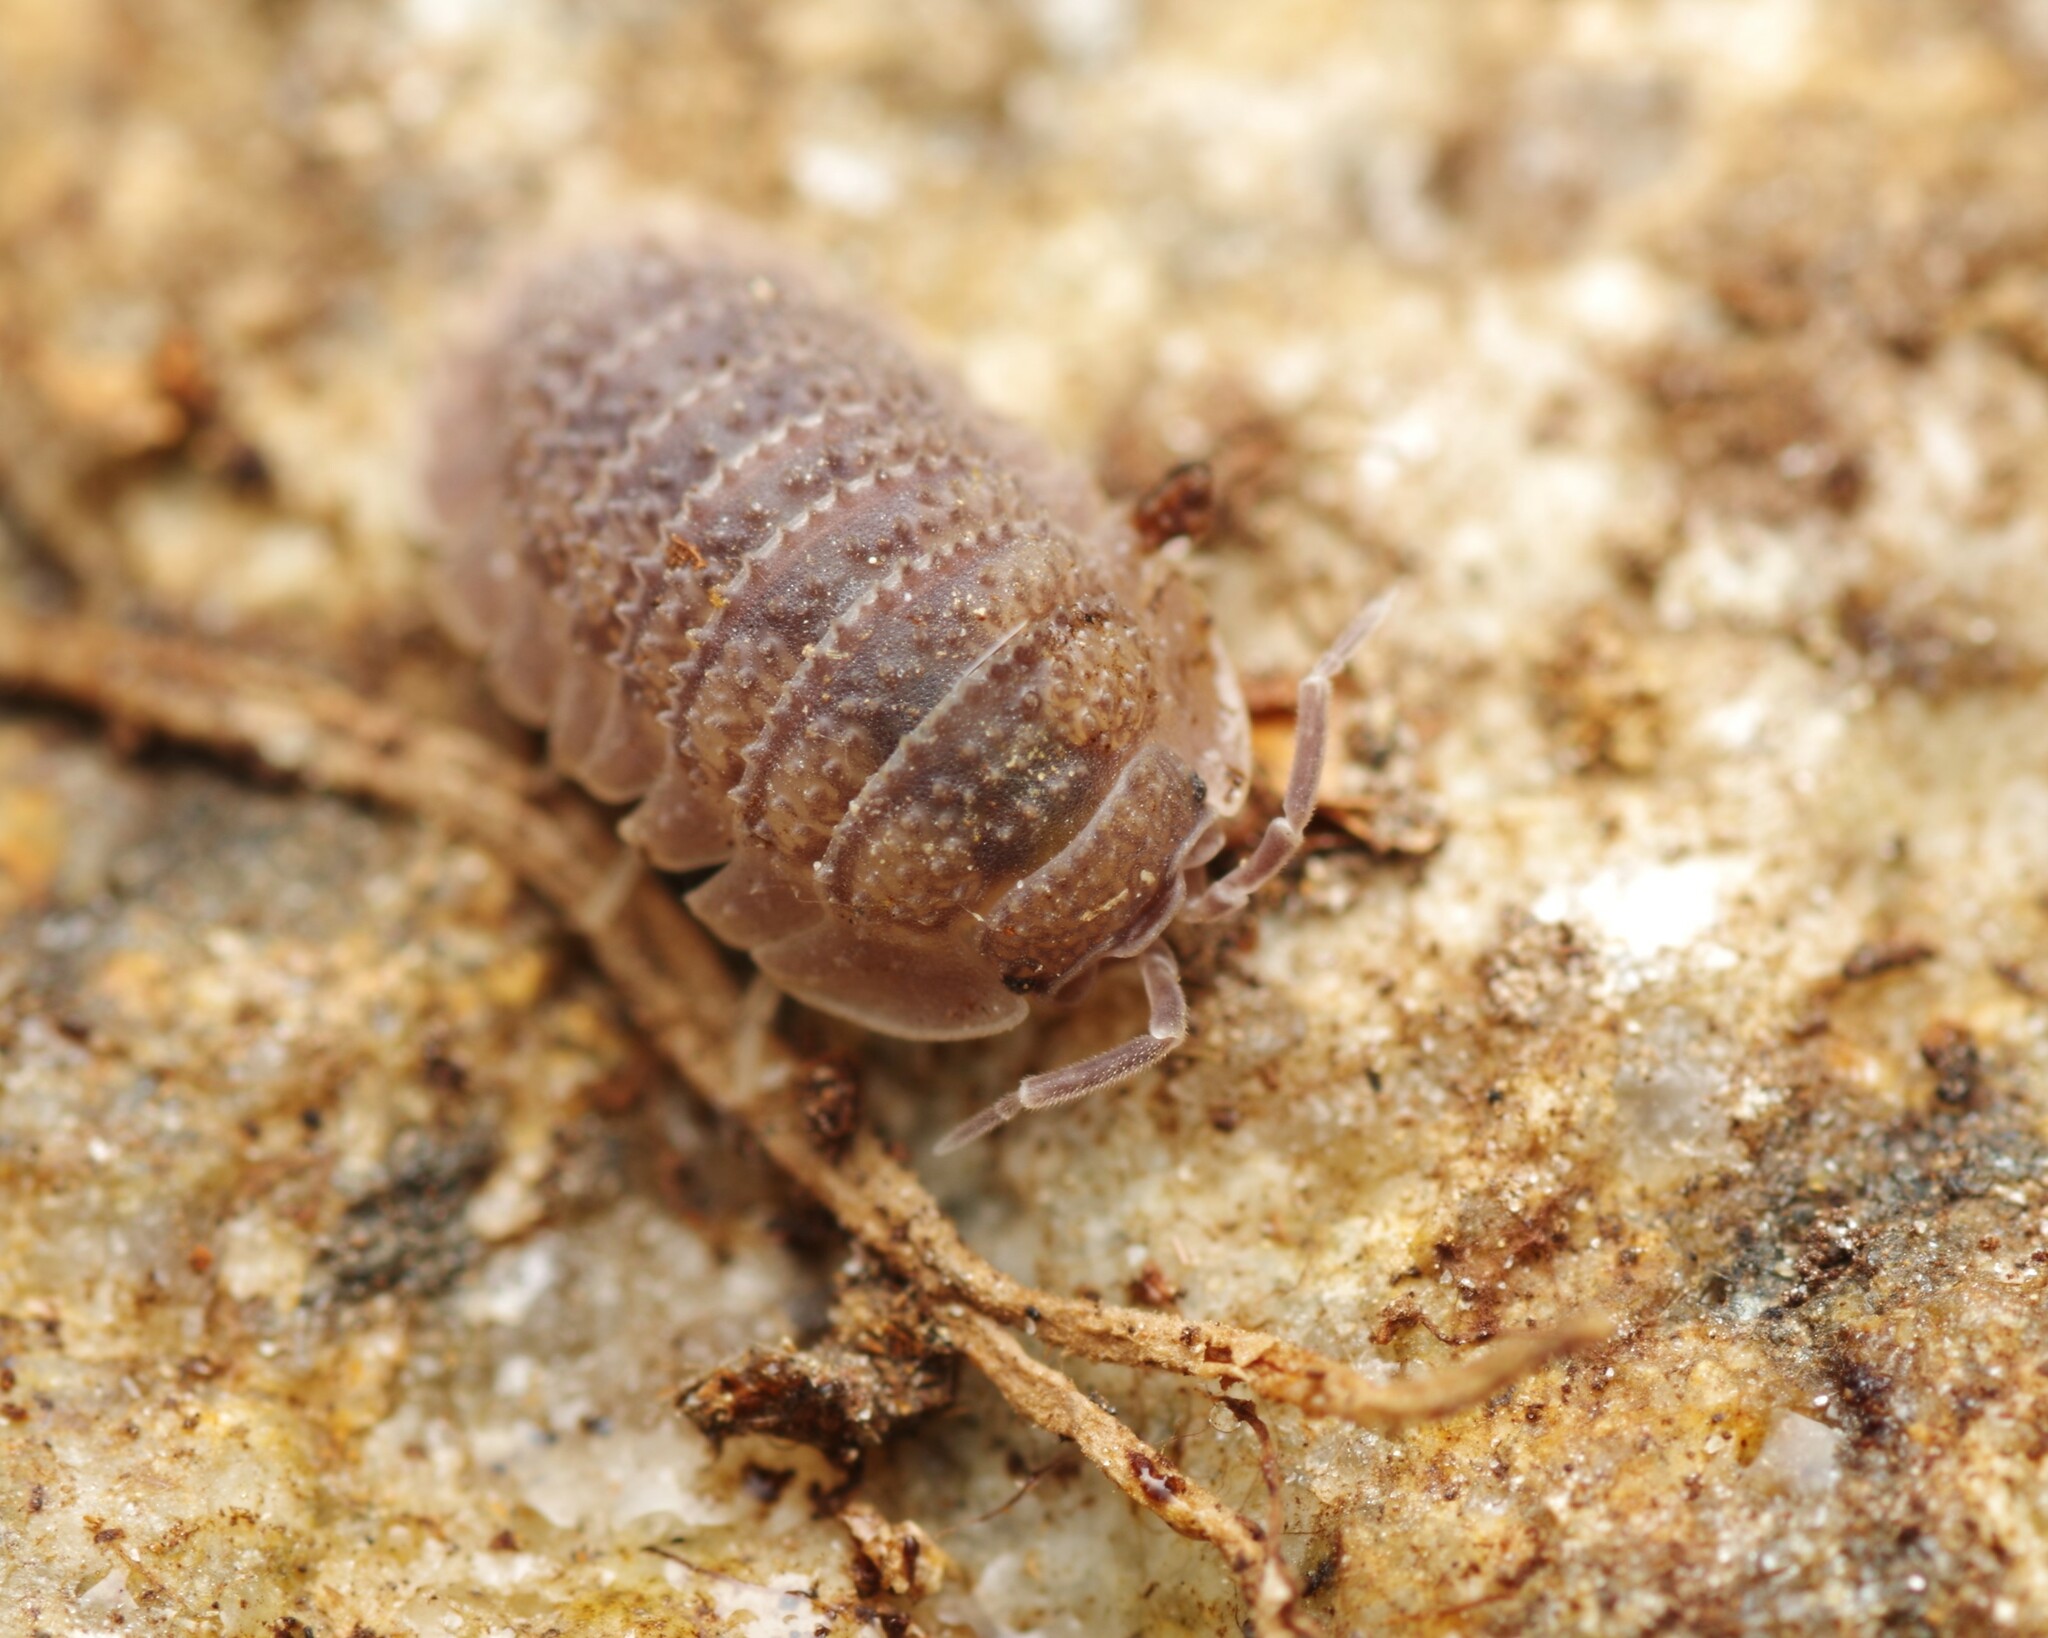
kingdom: Animalia
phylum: Arthropoda
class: Malacostraca
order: Isopoda
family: Armadillidiidae
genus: Armadillidium
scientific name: Armadillidium serratum
